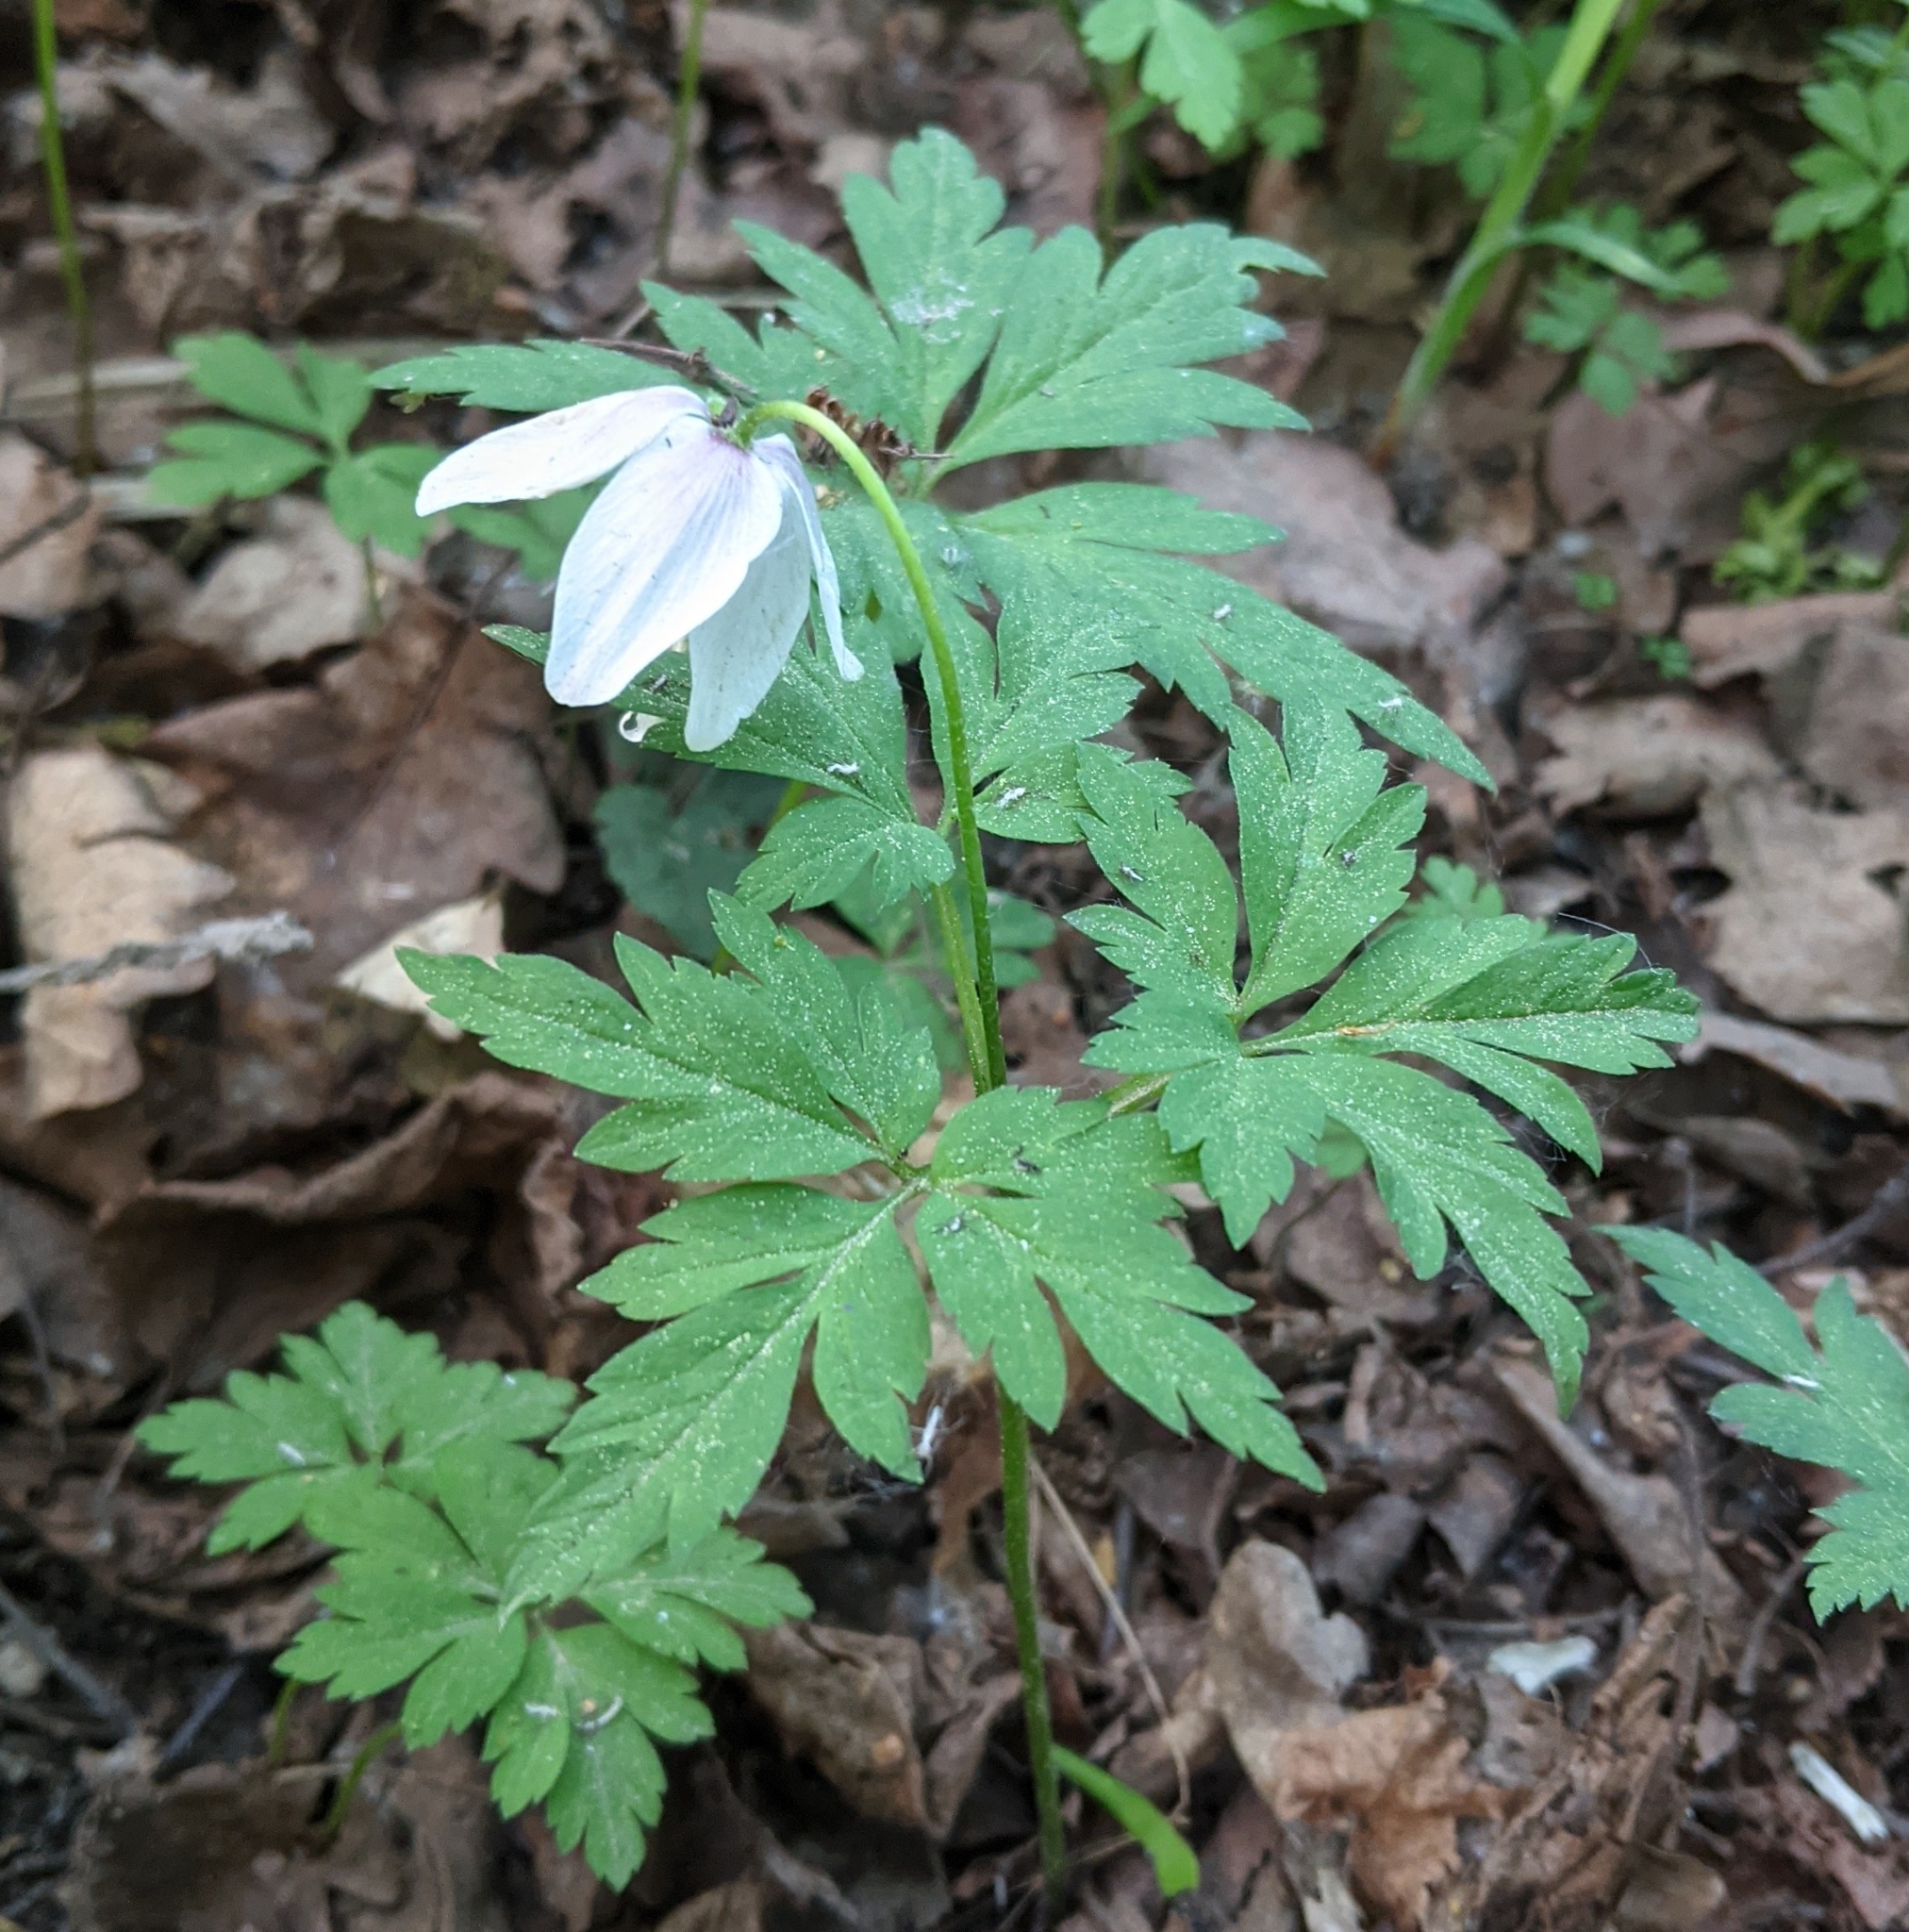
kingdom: Plantae
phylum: Tracheophyta
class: Magnoliopsida
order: Ranunculales
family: Ranunculaceae
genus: Anemone
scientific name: Anemone nemorosa
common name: Wood anemone
